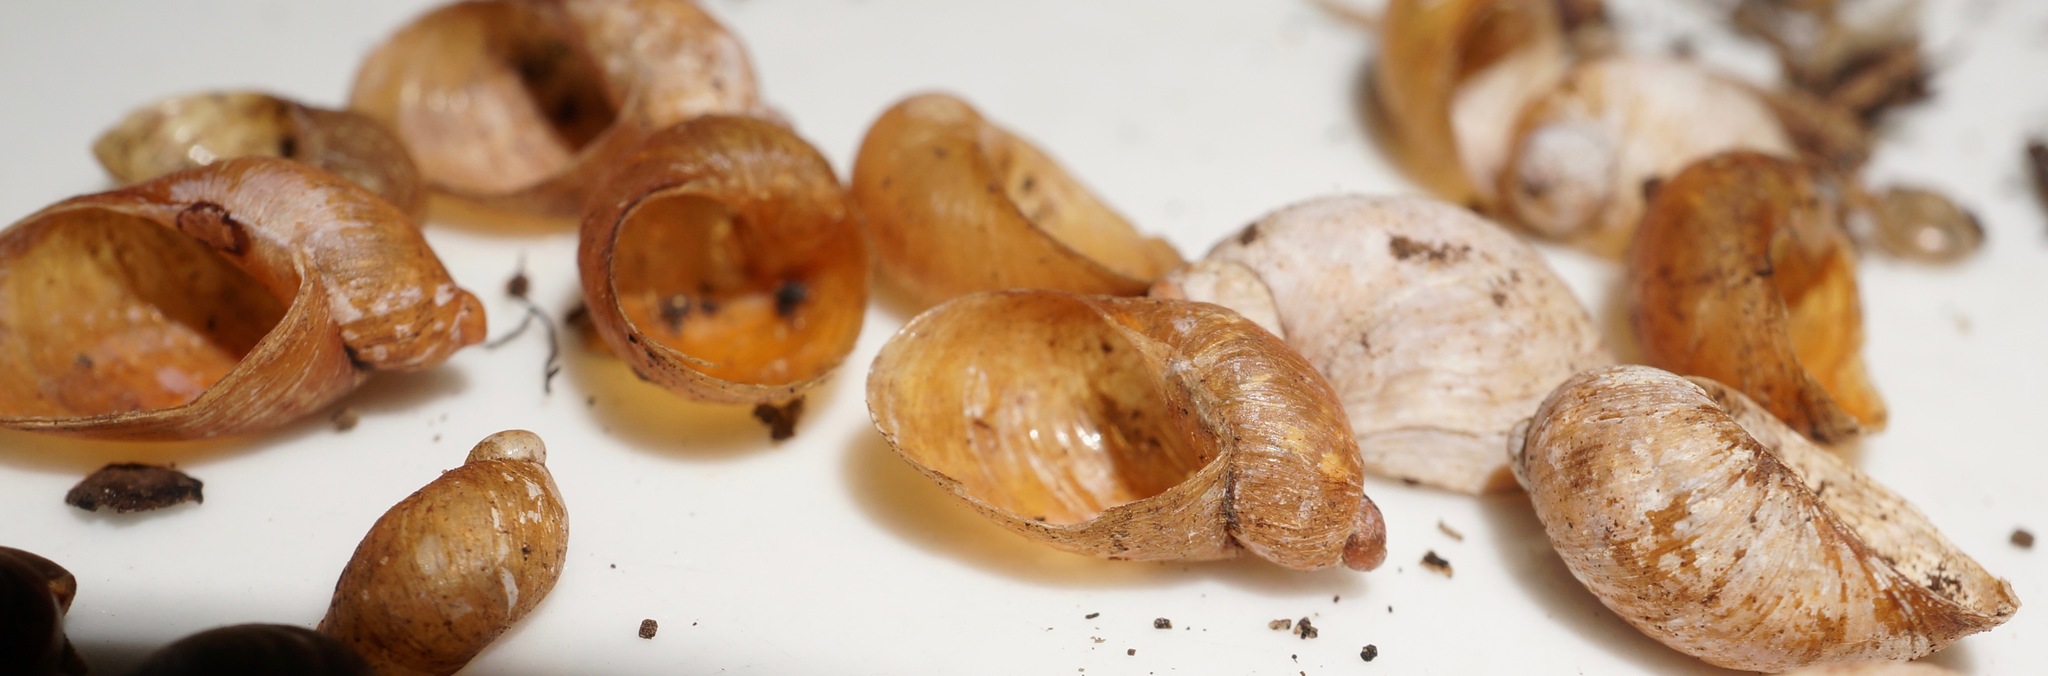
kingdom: Animalia
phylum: Mollusca
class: Gastropoda
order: Stylommatophora
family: Succineidae
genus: Succinea
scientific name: Succinea norfolkensis
